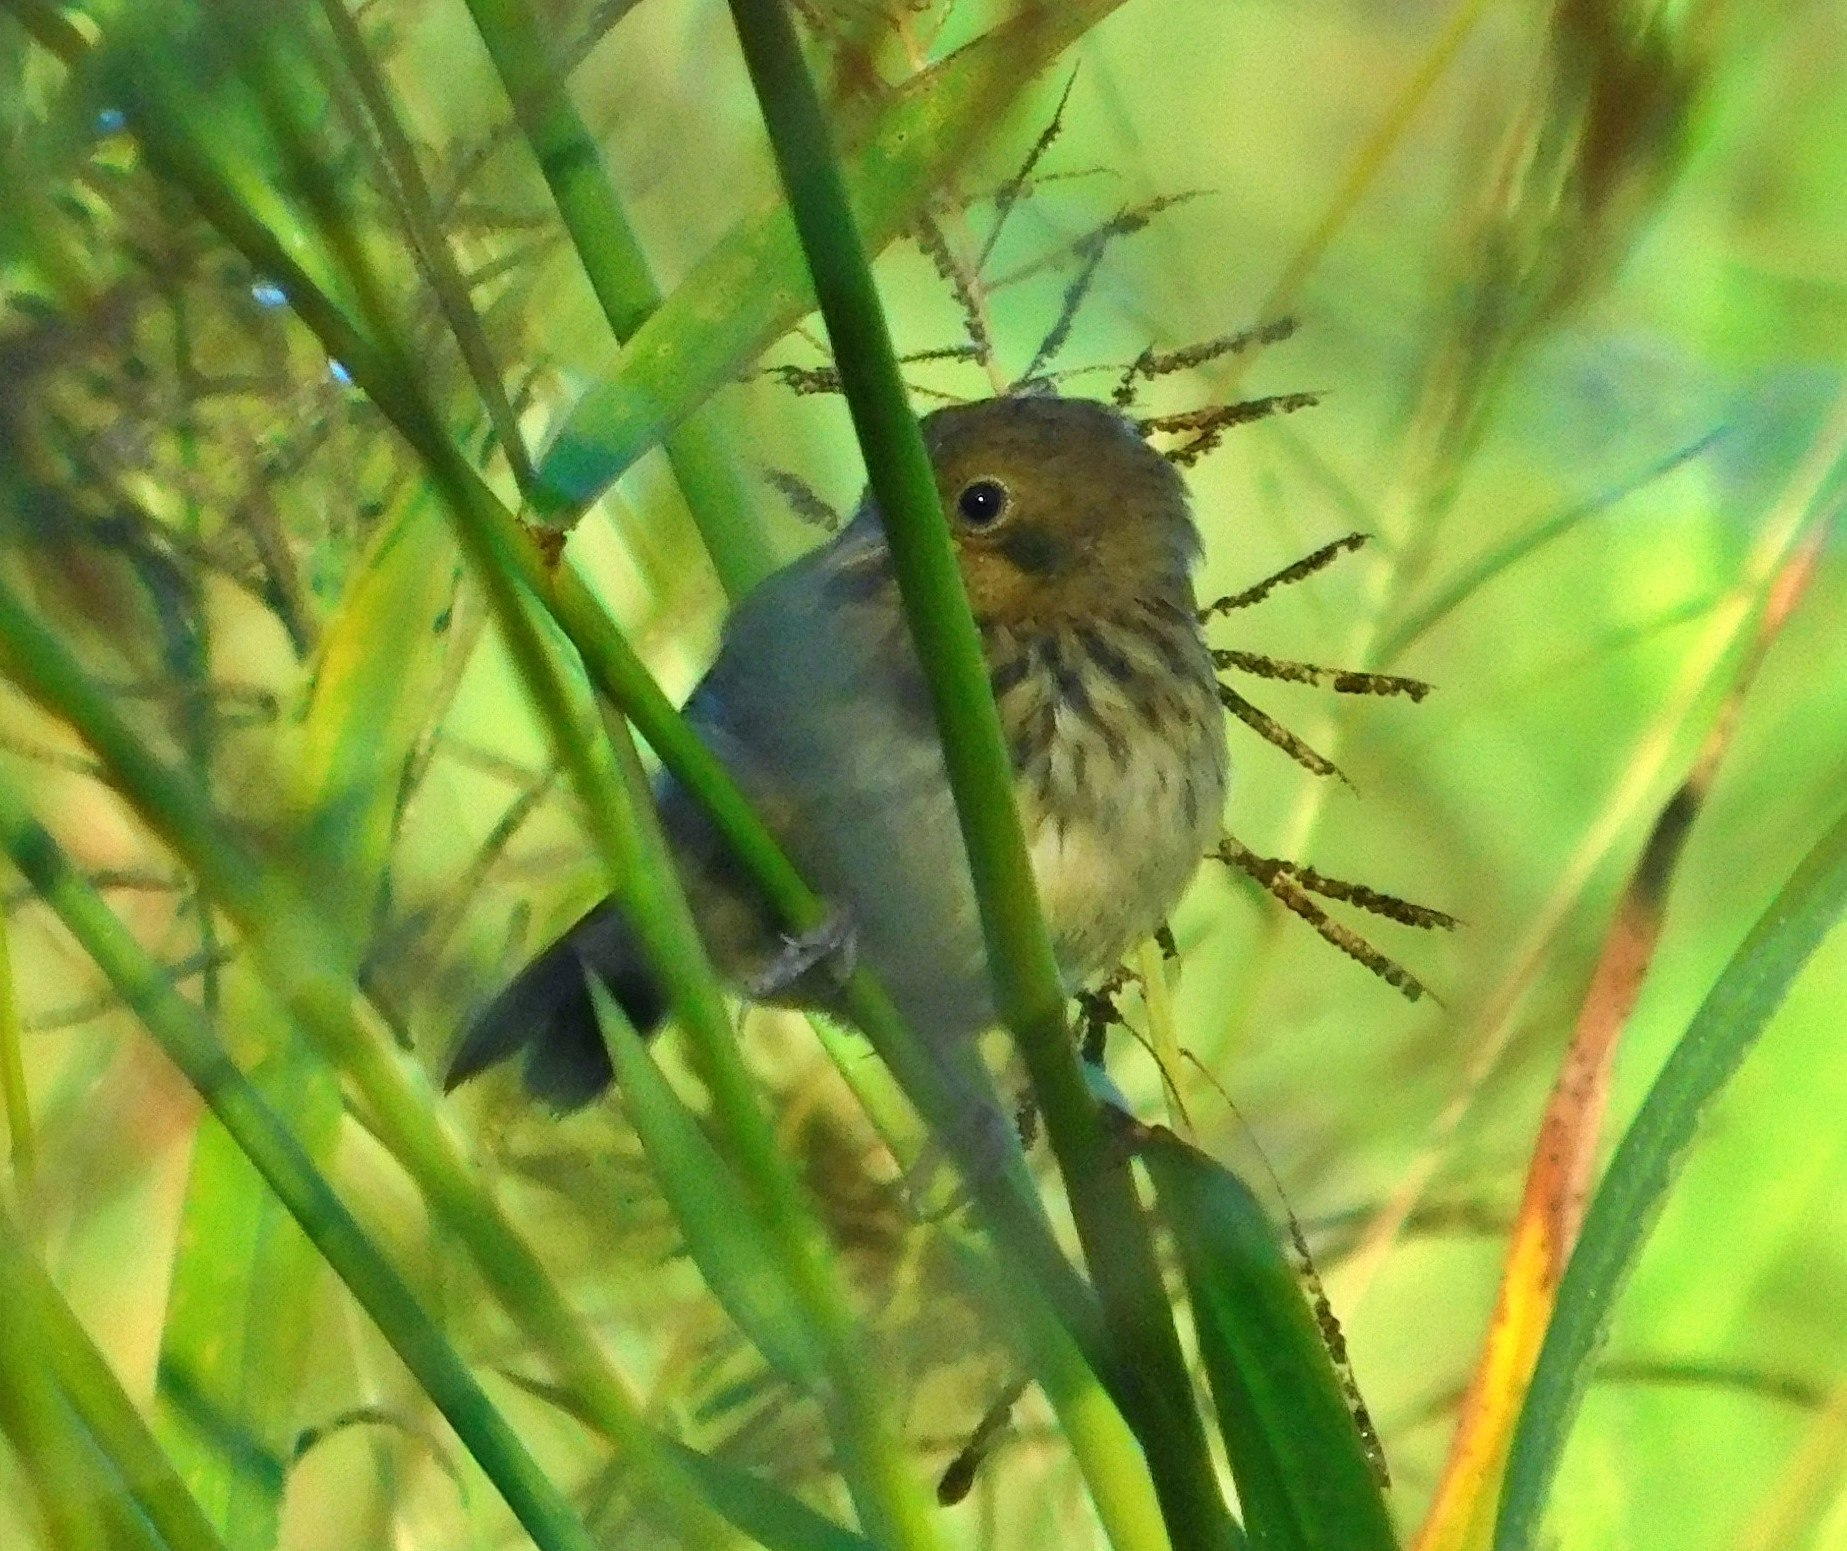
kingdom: Animalia
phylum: Chordata
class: Aves
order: Passeriformes
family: Thraupidae
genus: Volatinia
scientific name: Volatinia jacarina
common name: Blue-black grassquit
